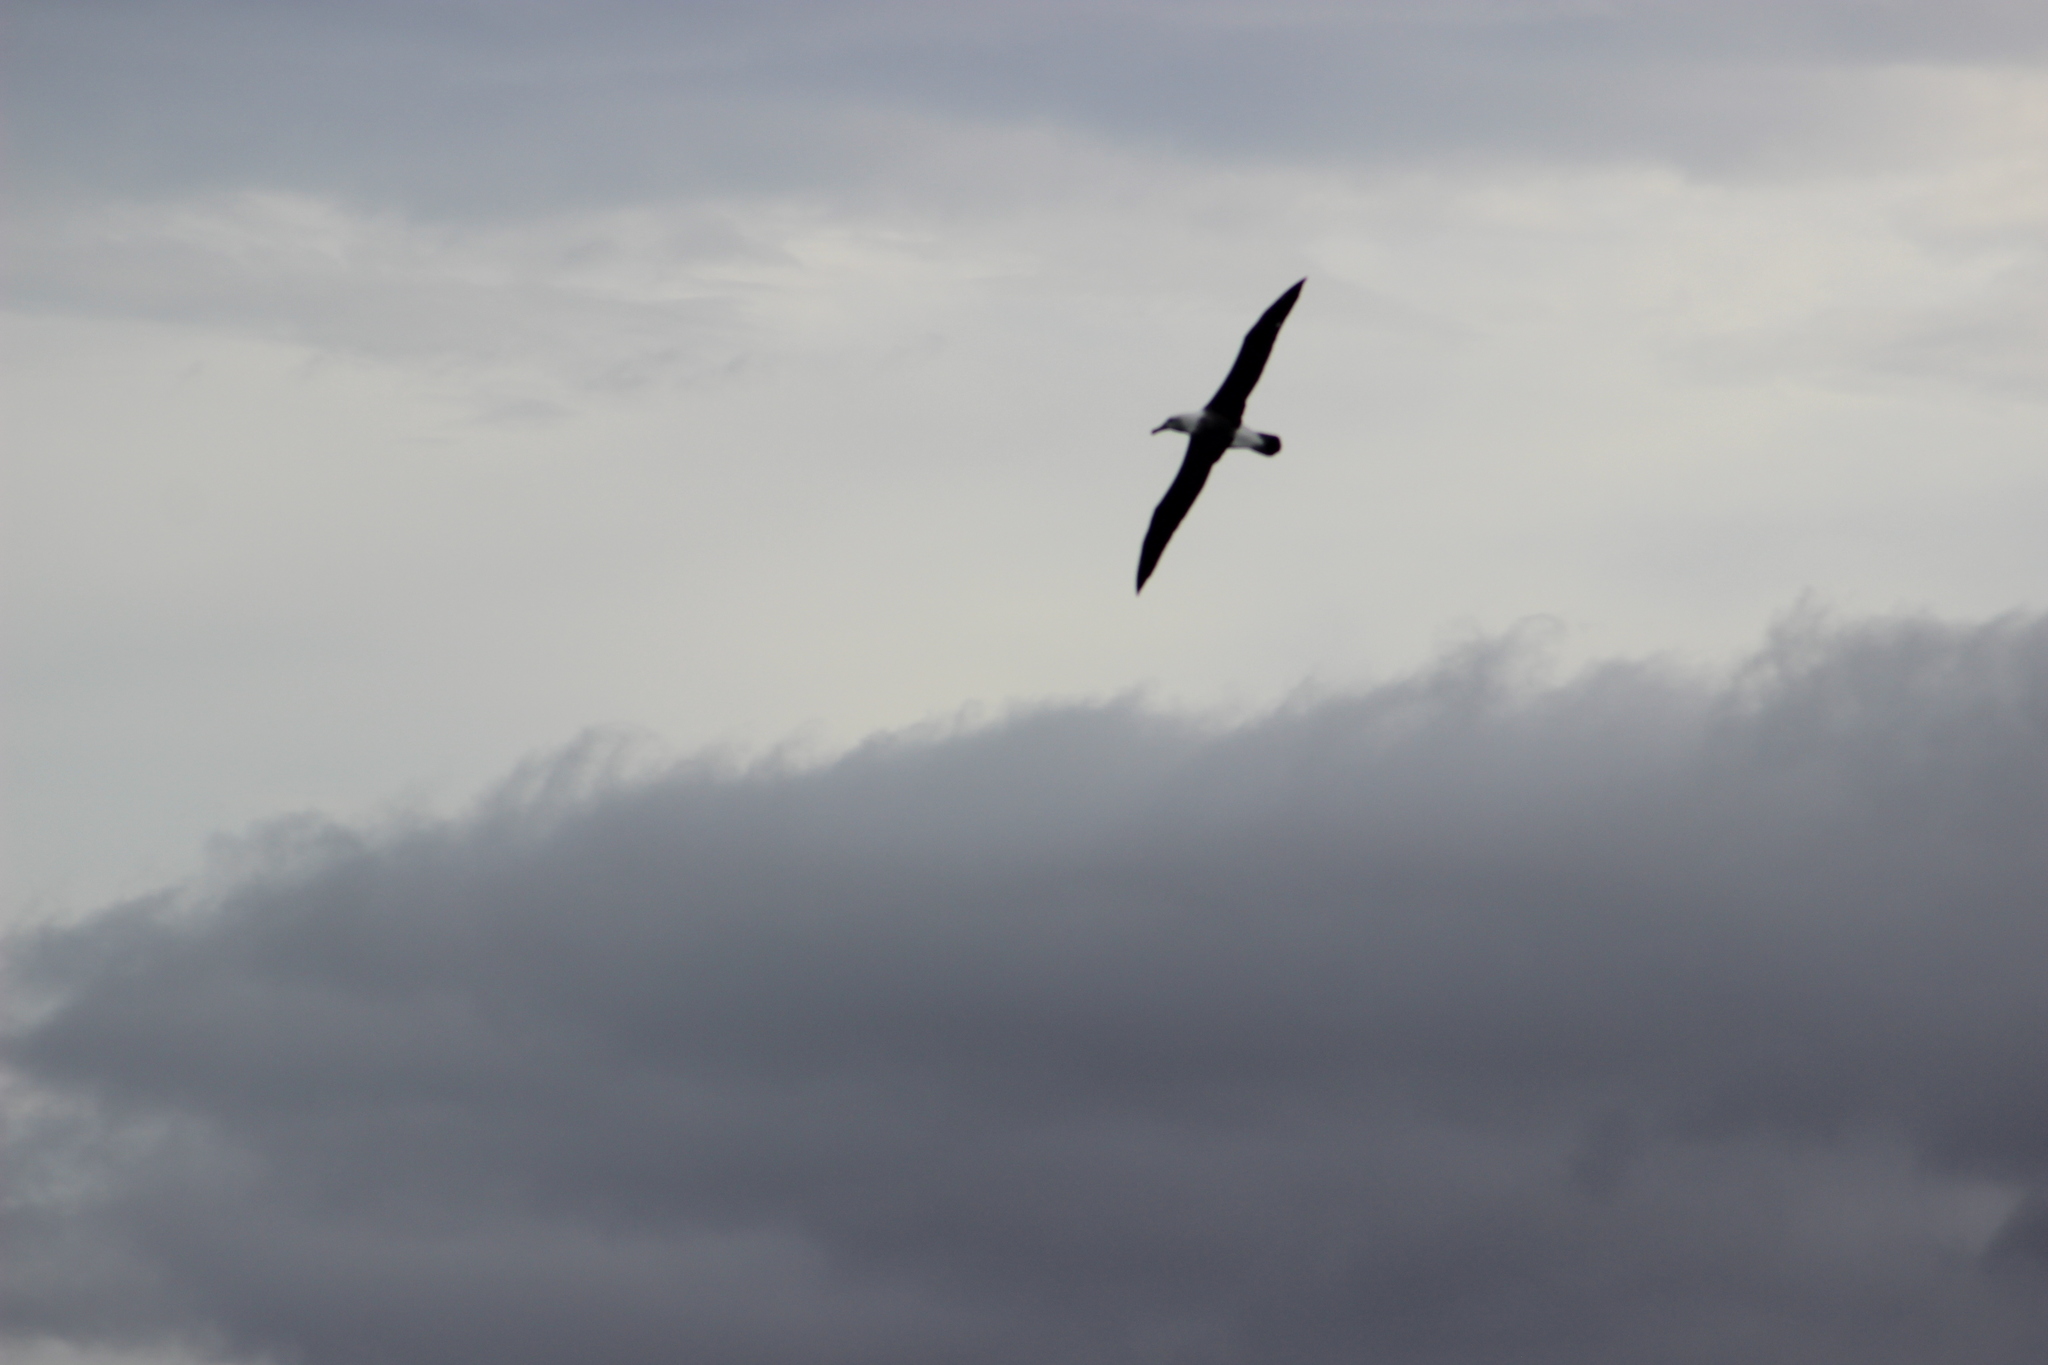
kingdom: Animalia
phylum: Chordata
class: Aves
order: Procellariiformes
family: Diomedeidae
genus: Thalassarche
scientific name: Thalassarche cauta
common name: Shy albatross
